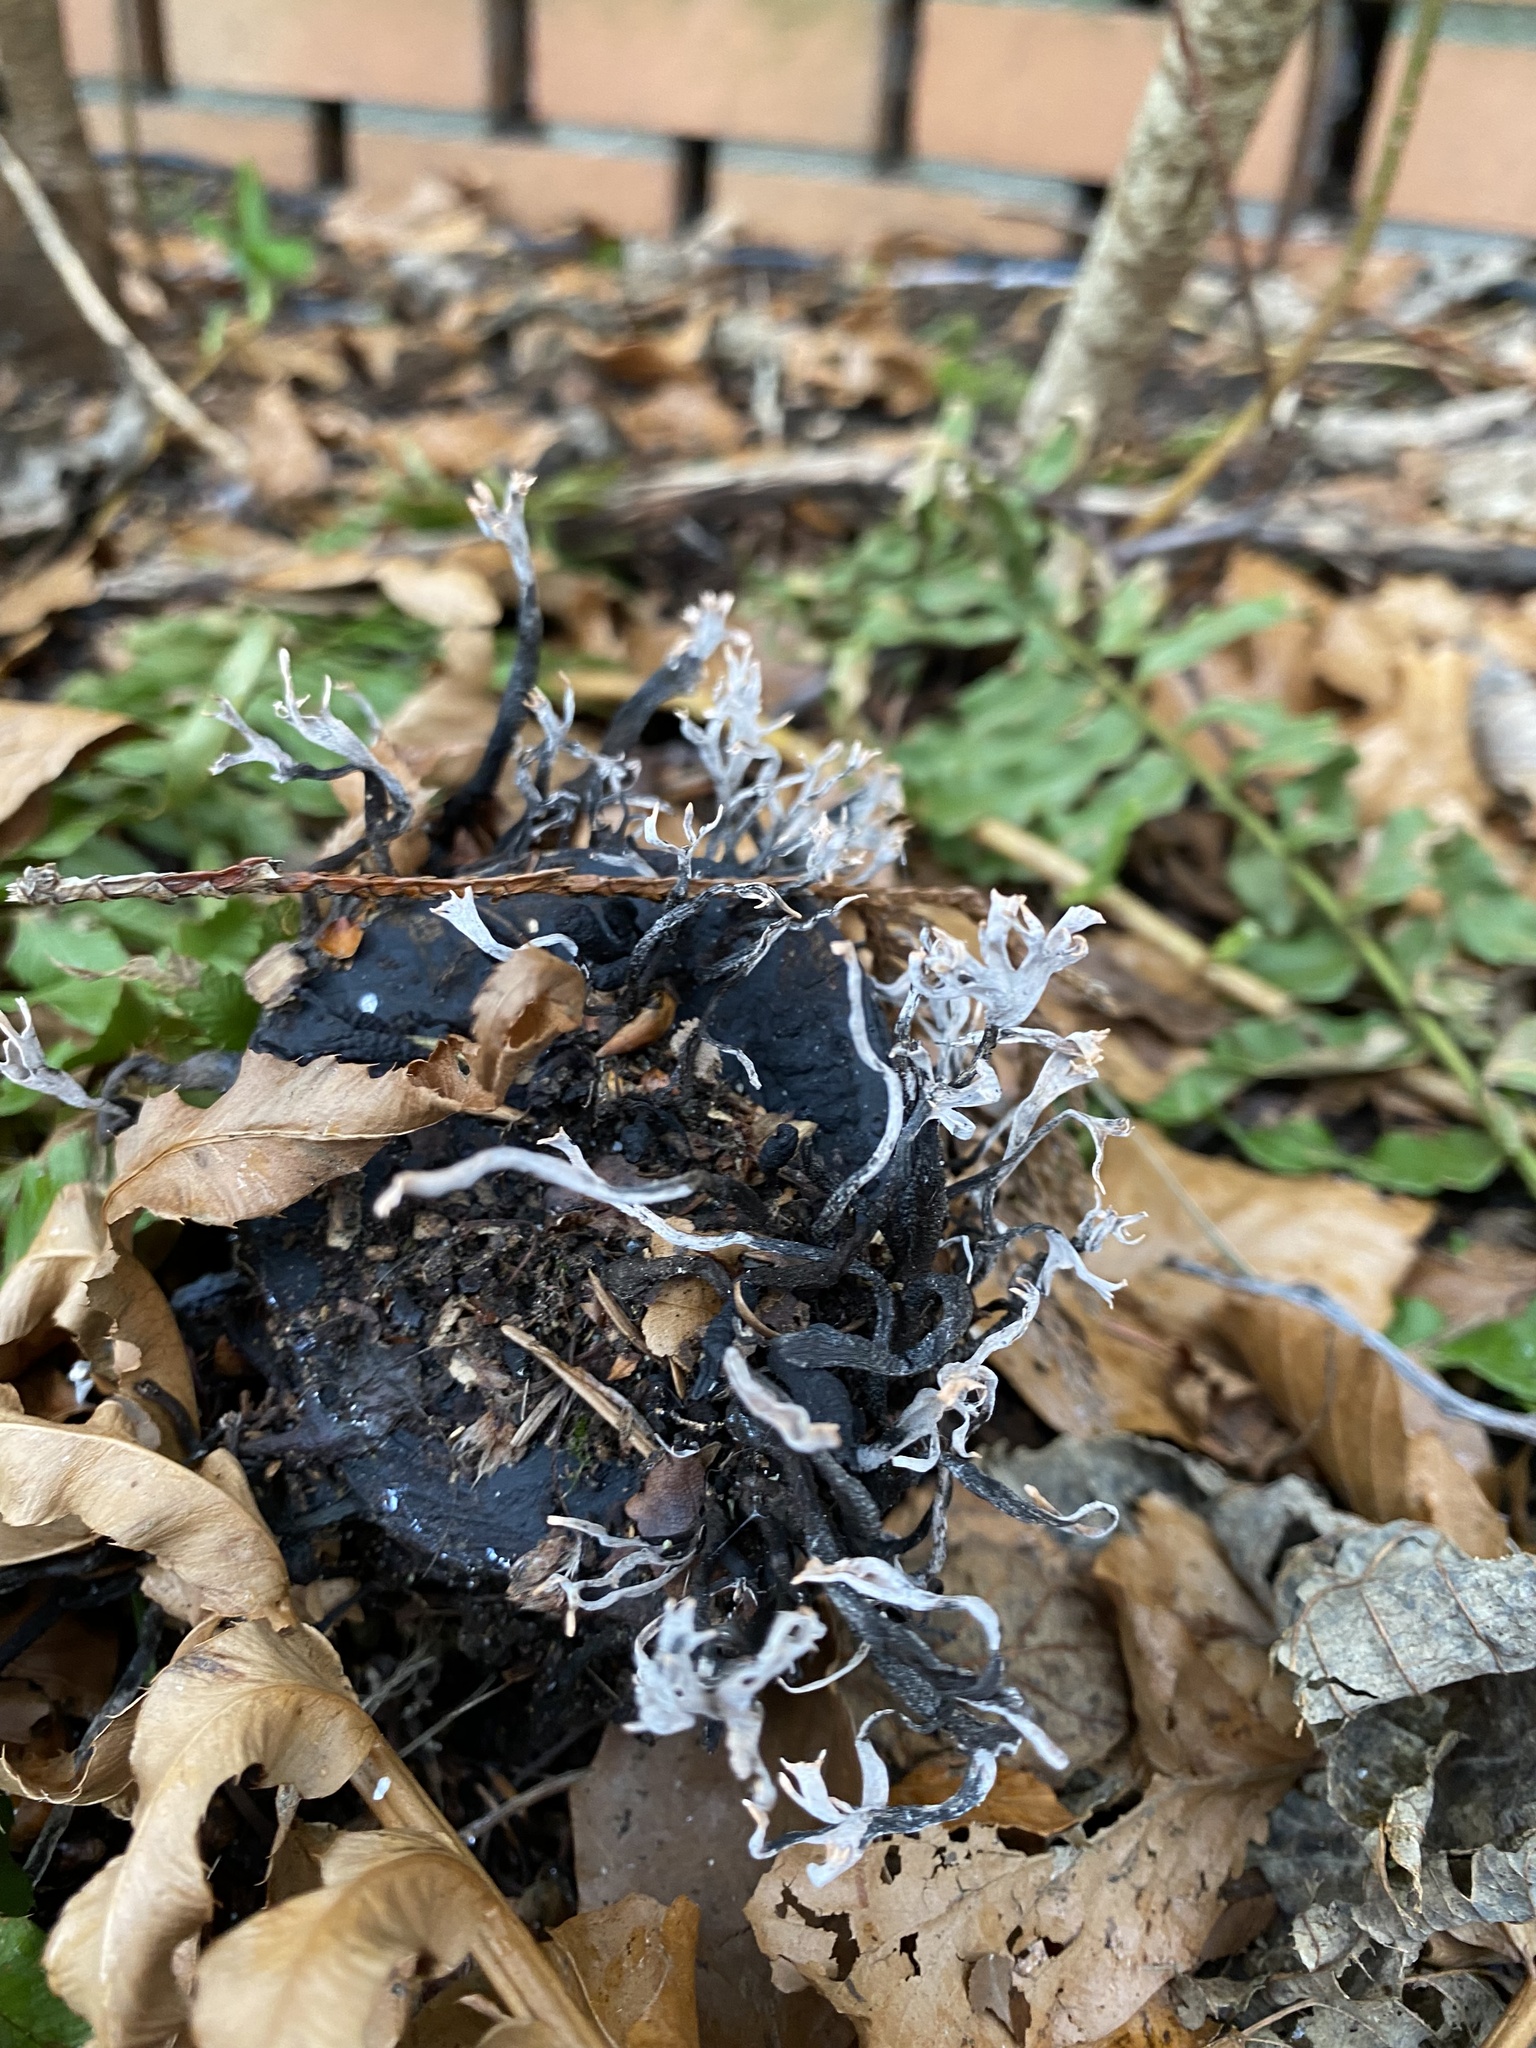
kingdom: Fungi
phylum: Ascomycota
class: Sordariomycetes
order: Xylariales
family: Xylariaceae
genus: Xylaria
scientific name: Xylaria hypoxylon
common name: Candle-snuff fungus
